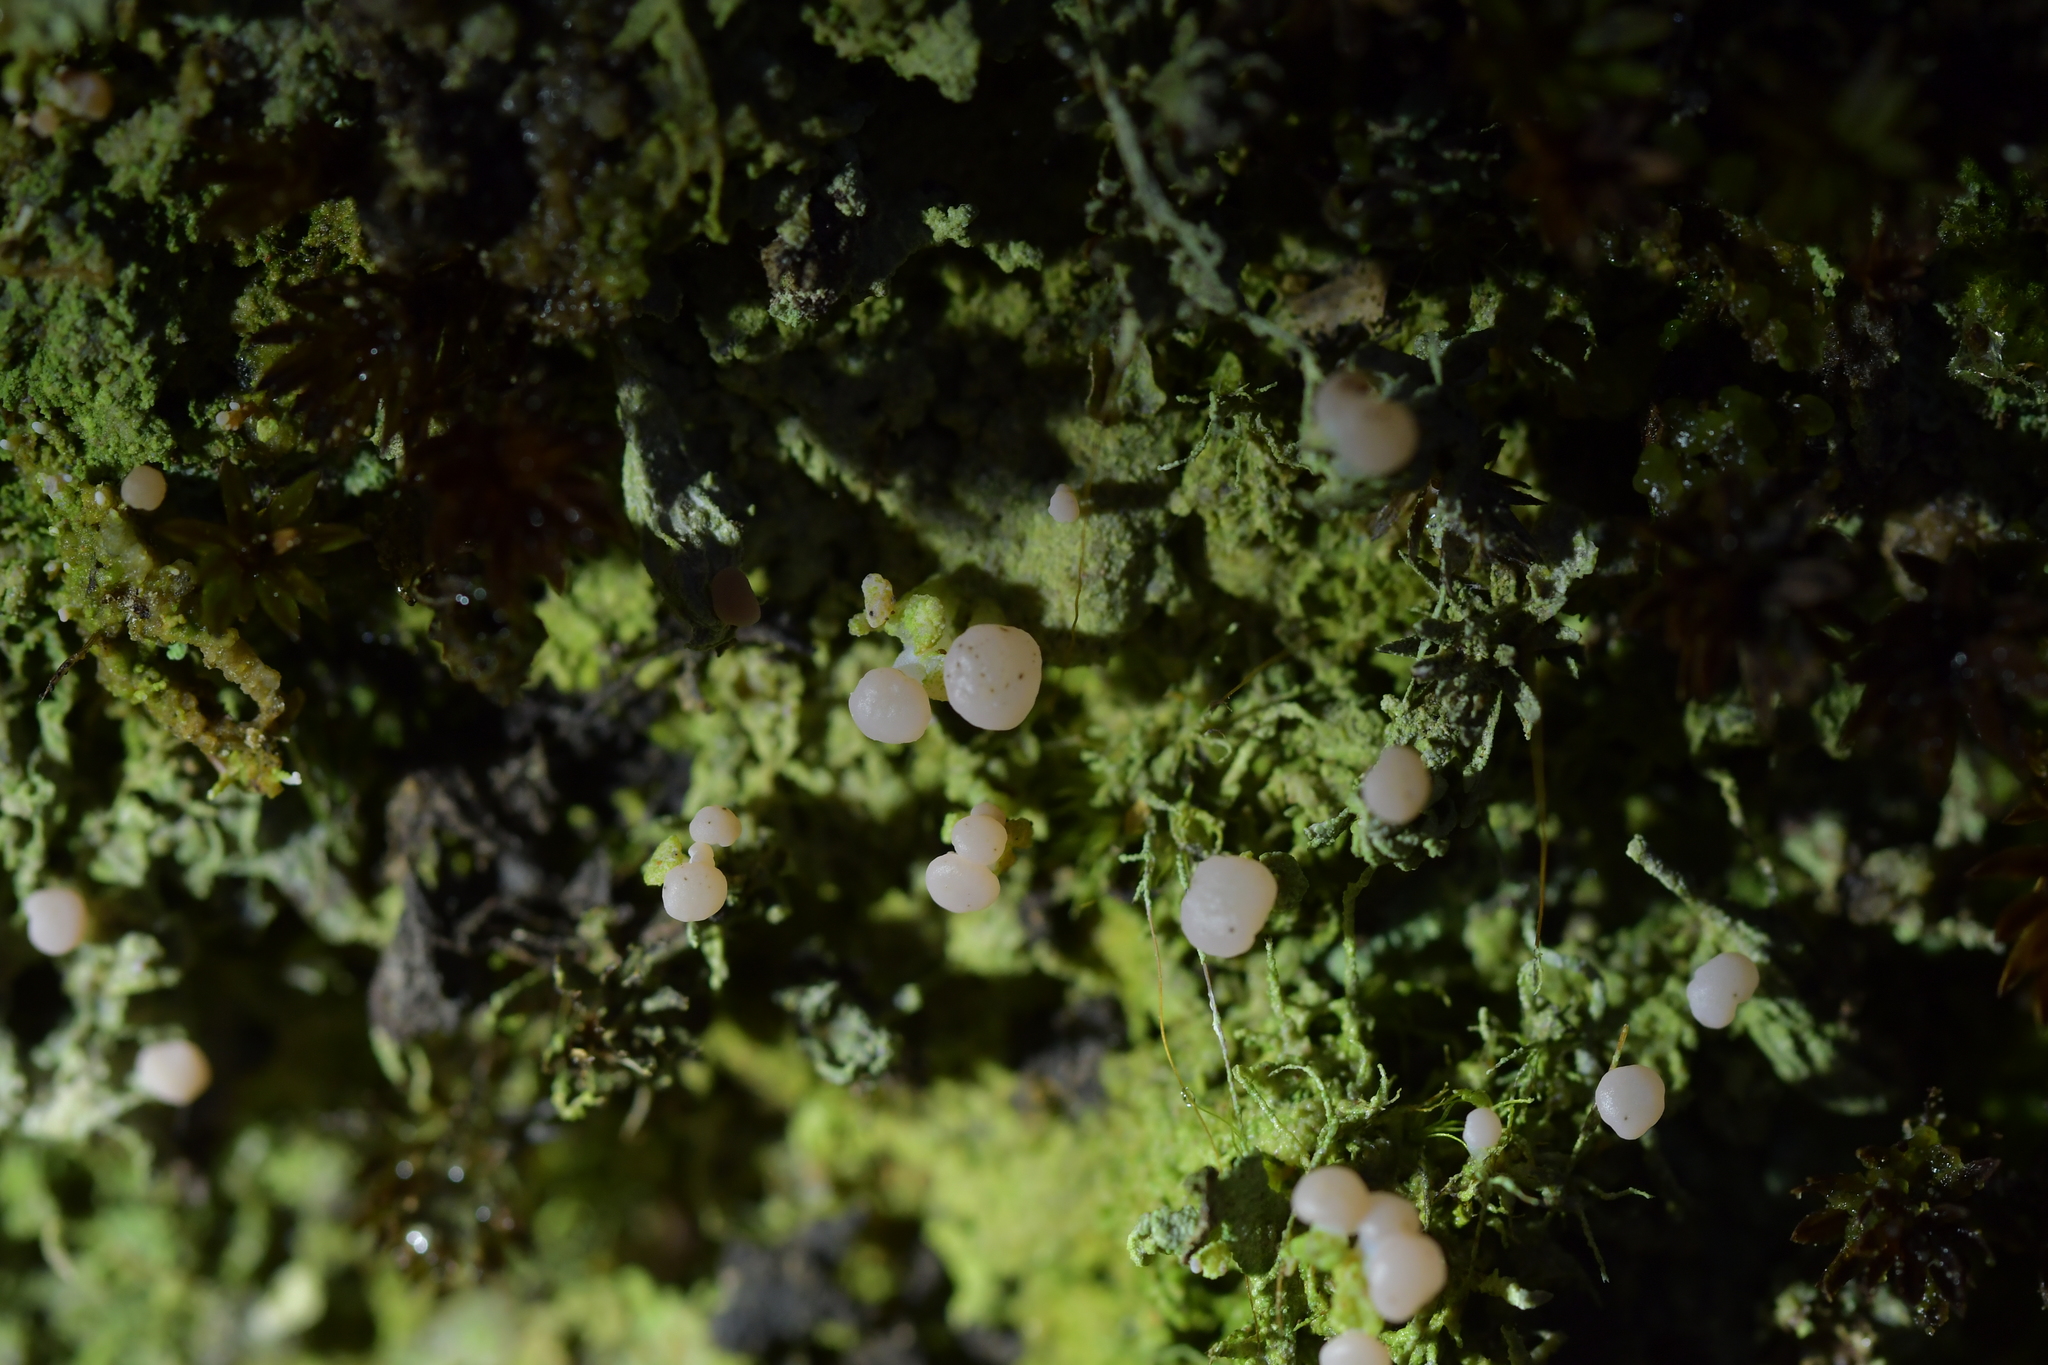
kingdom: Fungi
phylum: Ascomycota
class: Lecanoromycetes
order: Baeomycetales
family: Baeomycetaceae
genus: Baeomyces
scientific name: Baeomyces heteromorphus
